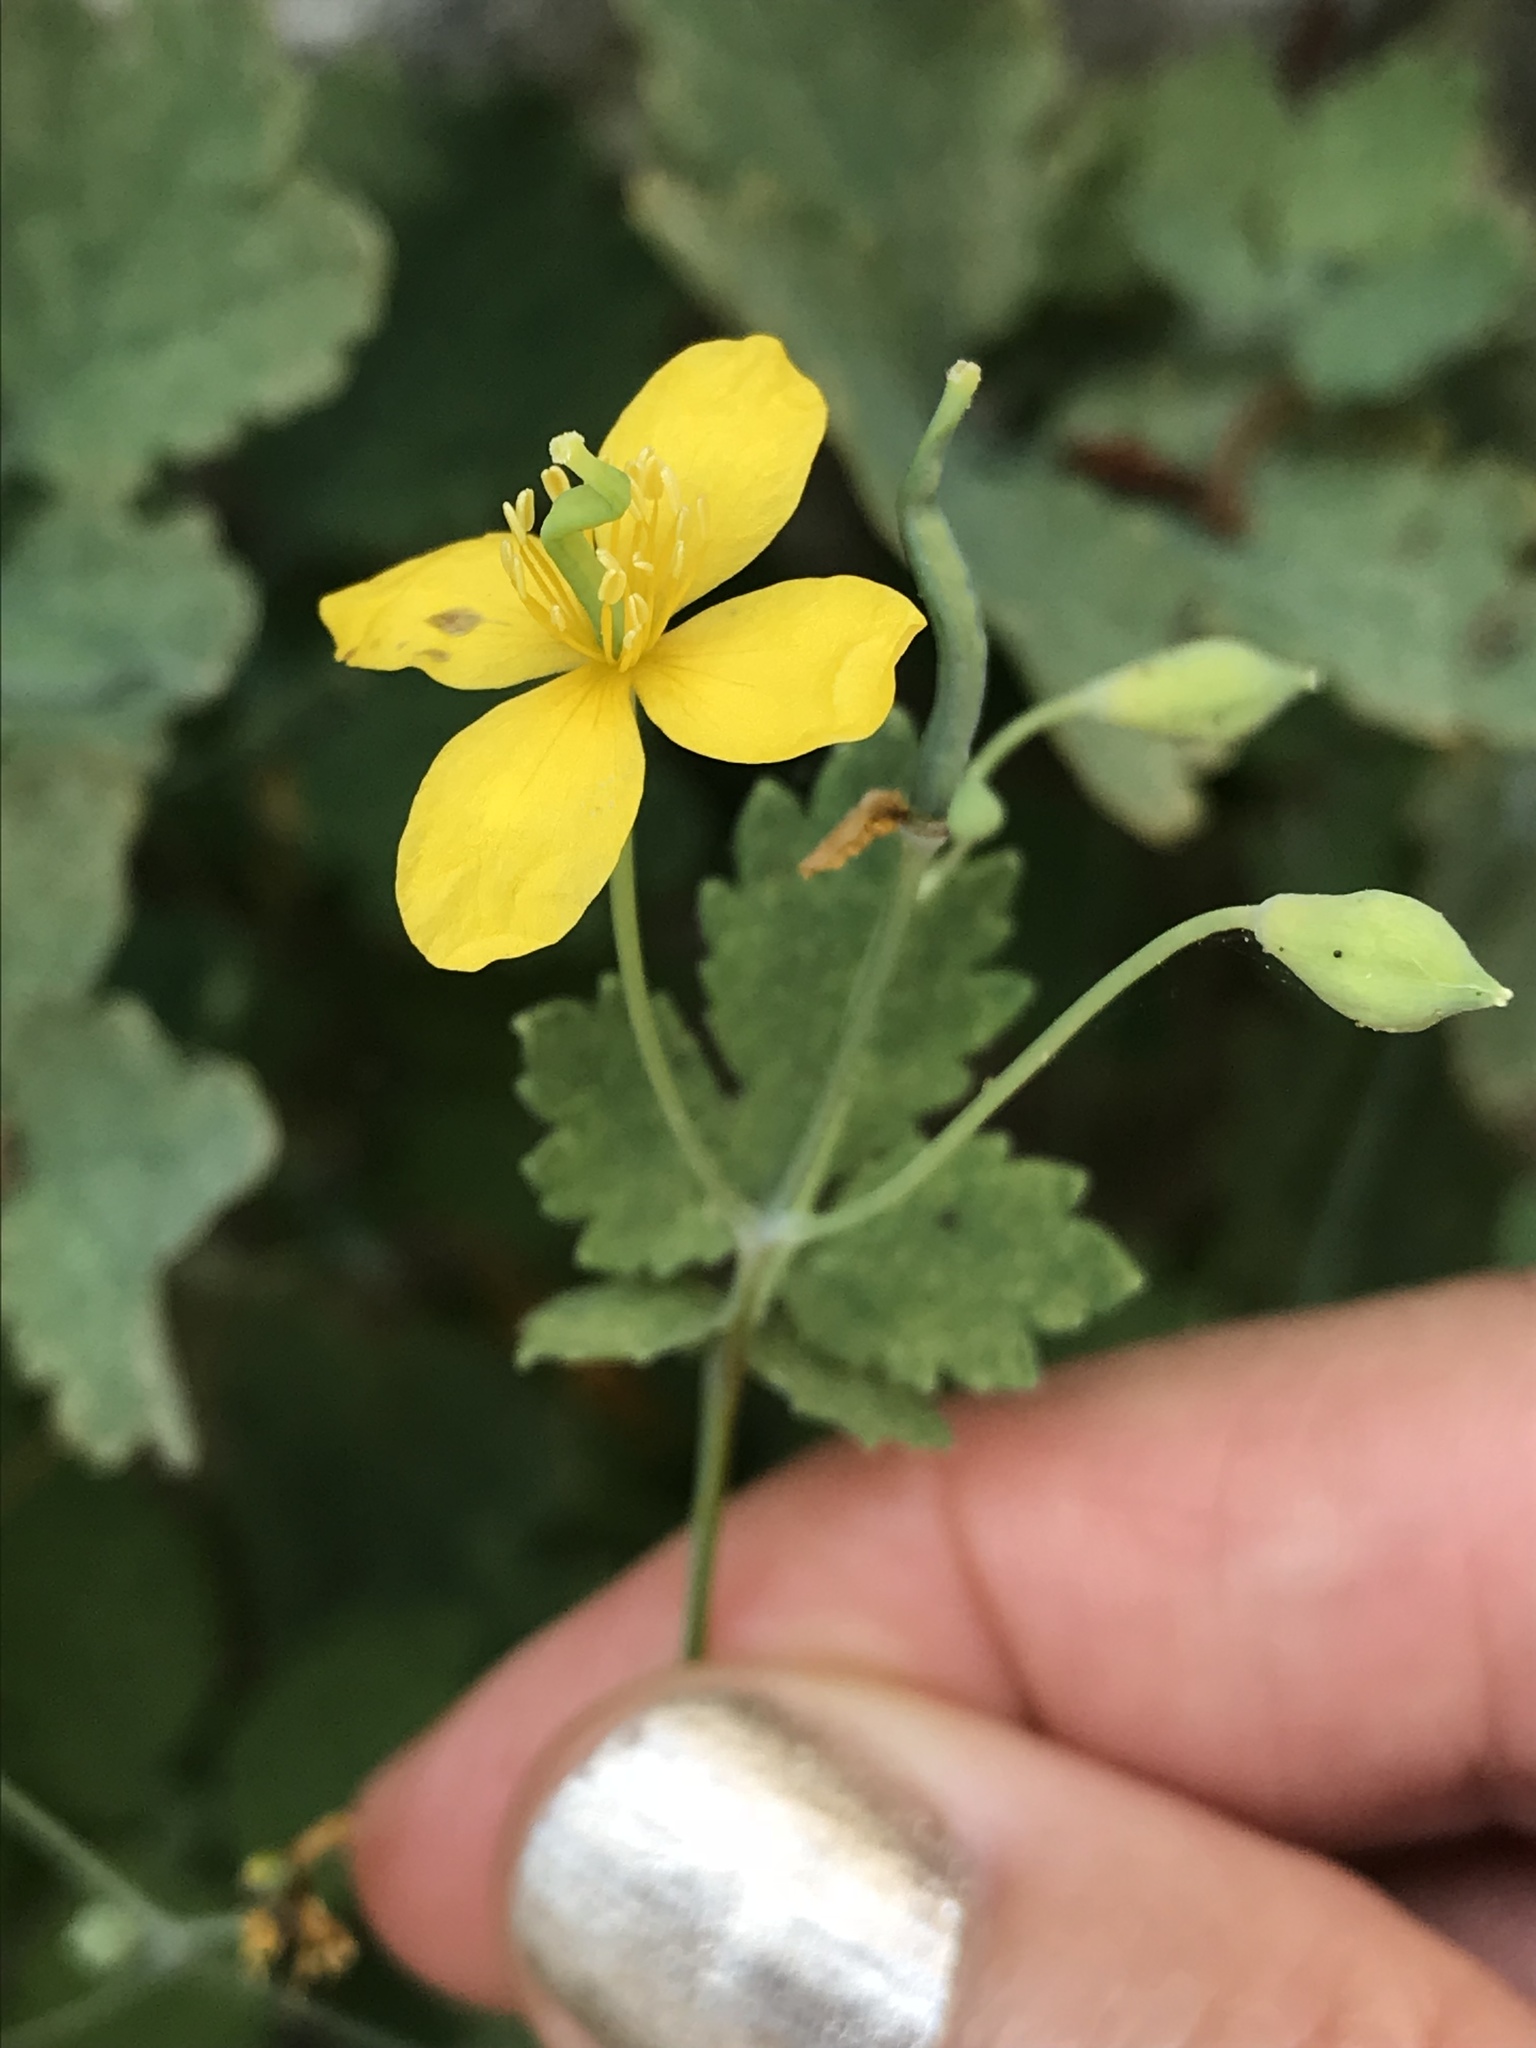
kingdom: Plantae
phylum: Tracheophyta
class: Magnoliopsida
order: Ranunculales
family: Papaveraceae
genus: Chelidonium
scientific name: Chelidonium majus
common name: Greater celandine
